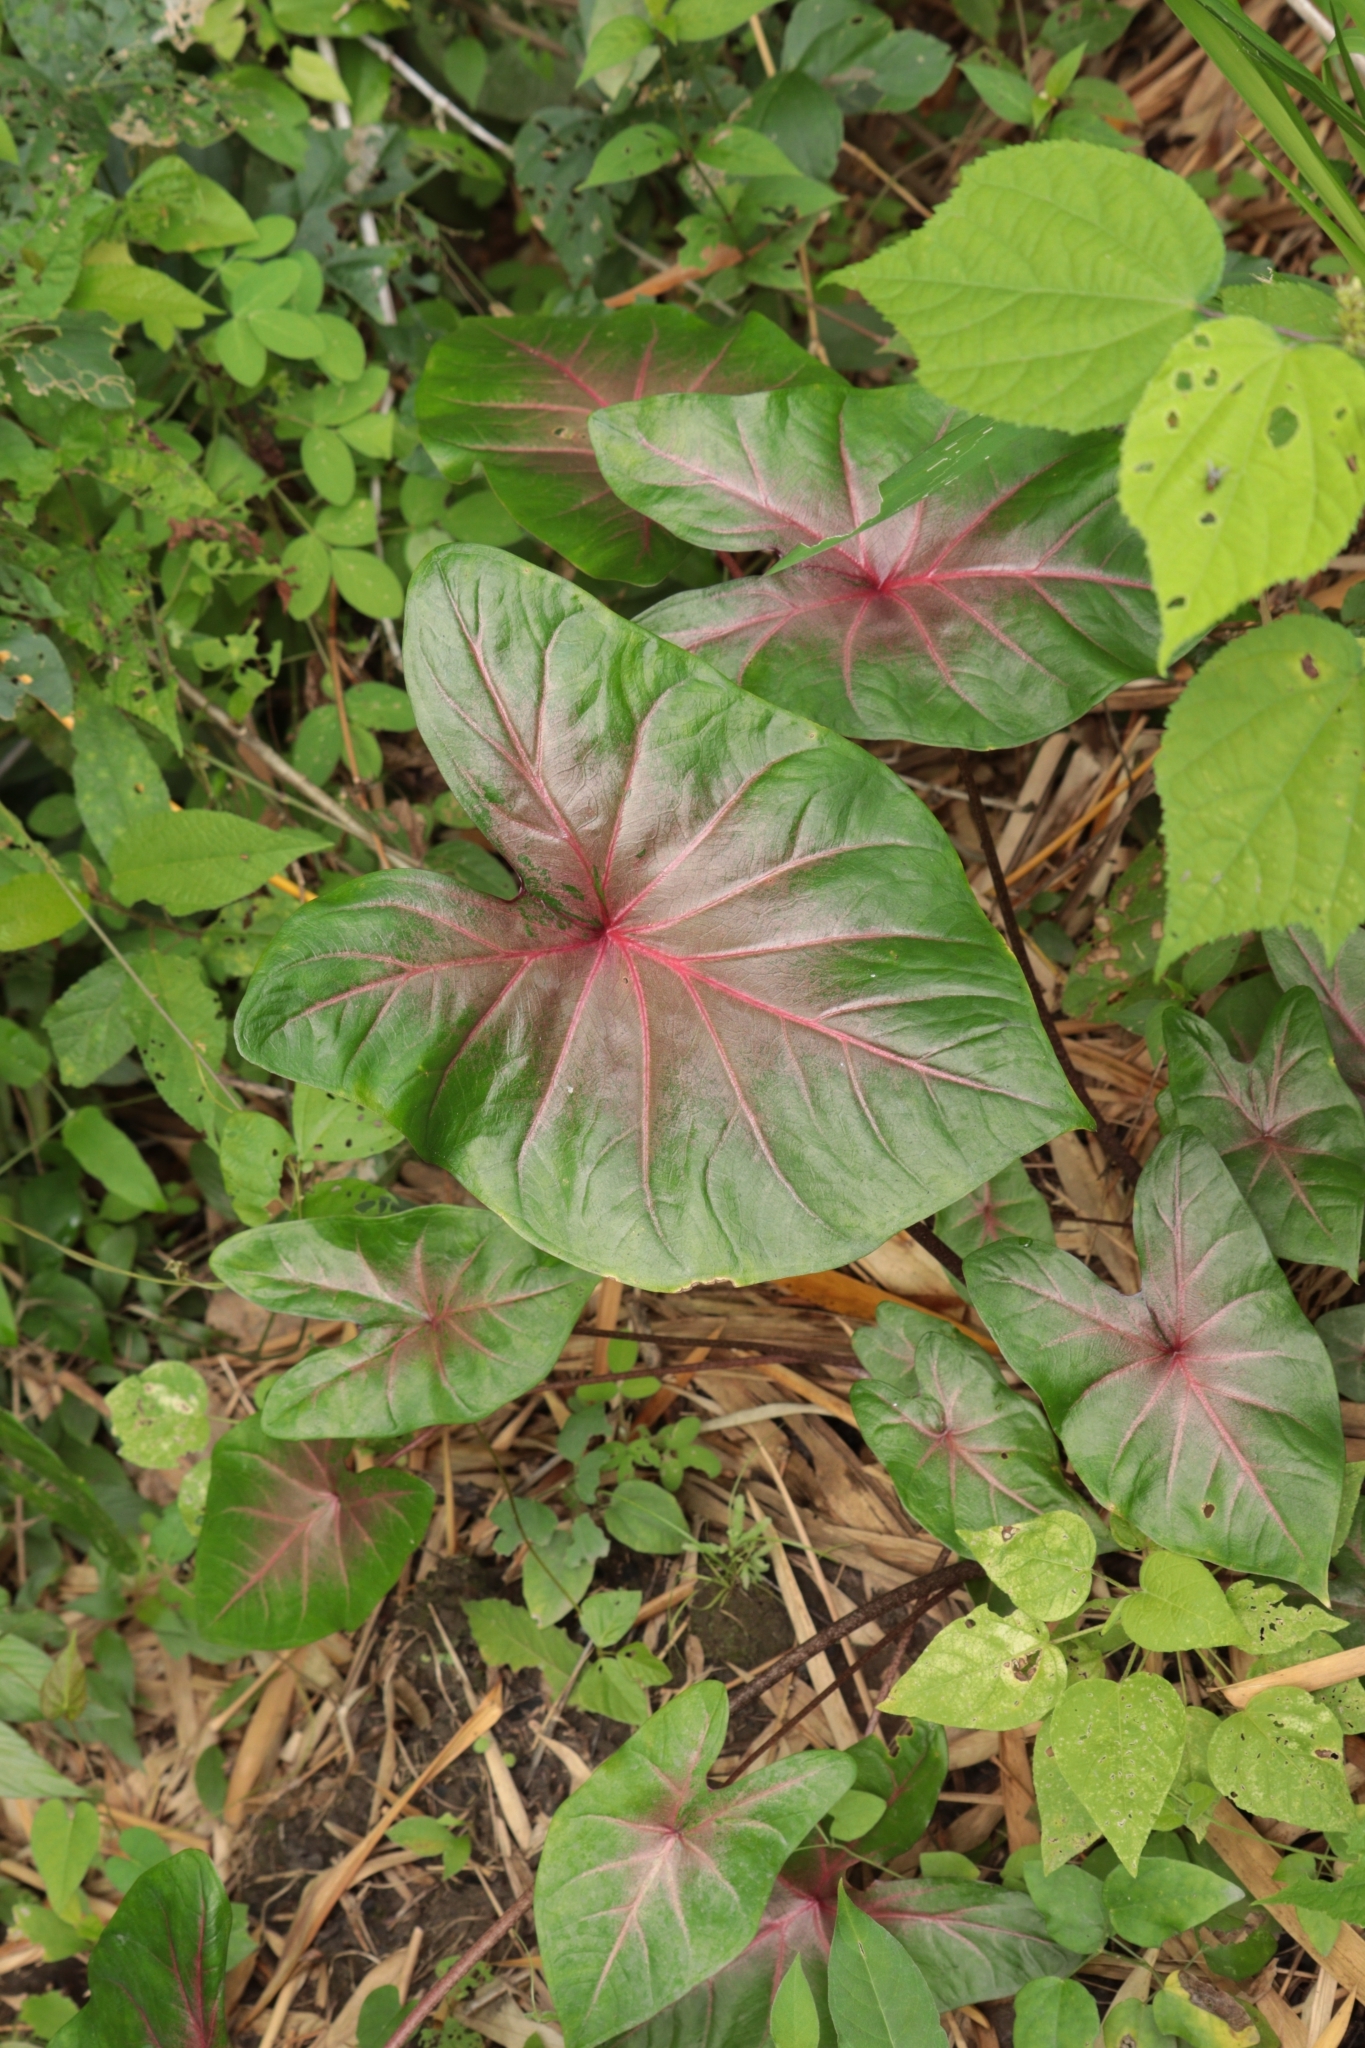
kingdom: Plantae
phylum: Tracheophyta
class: Liliopsida
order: Alismatales
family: Araceae
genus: Caladium
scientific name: Caladium bicolor
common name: Artist's pallet
